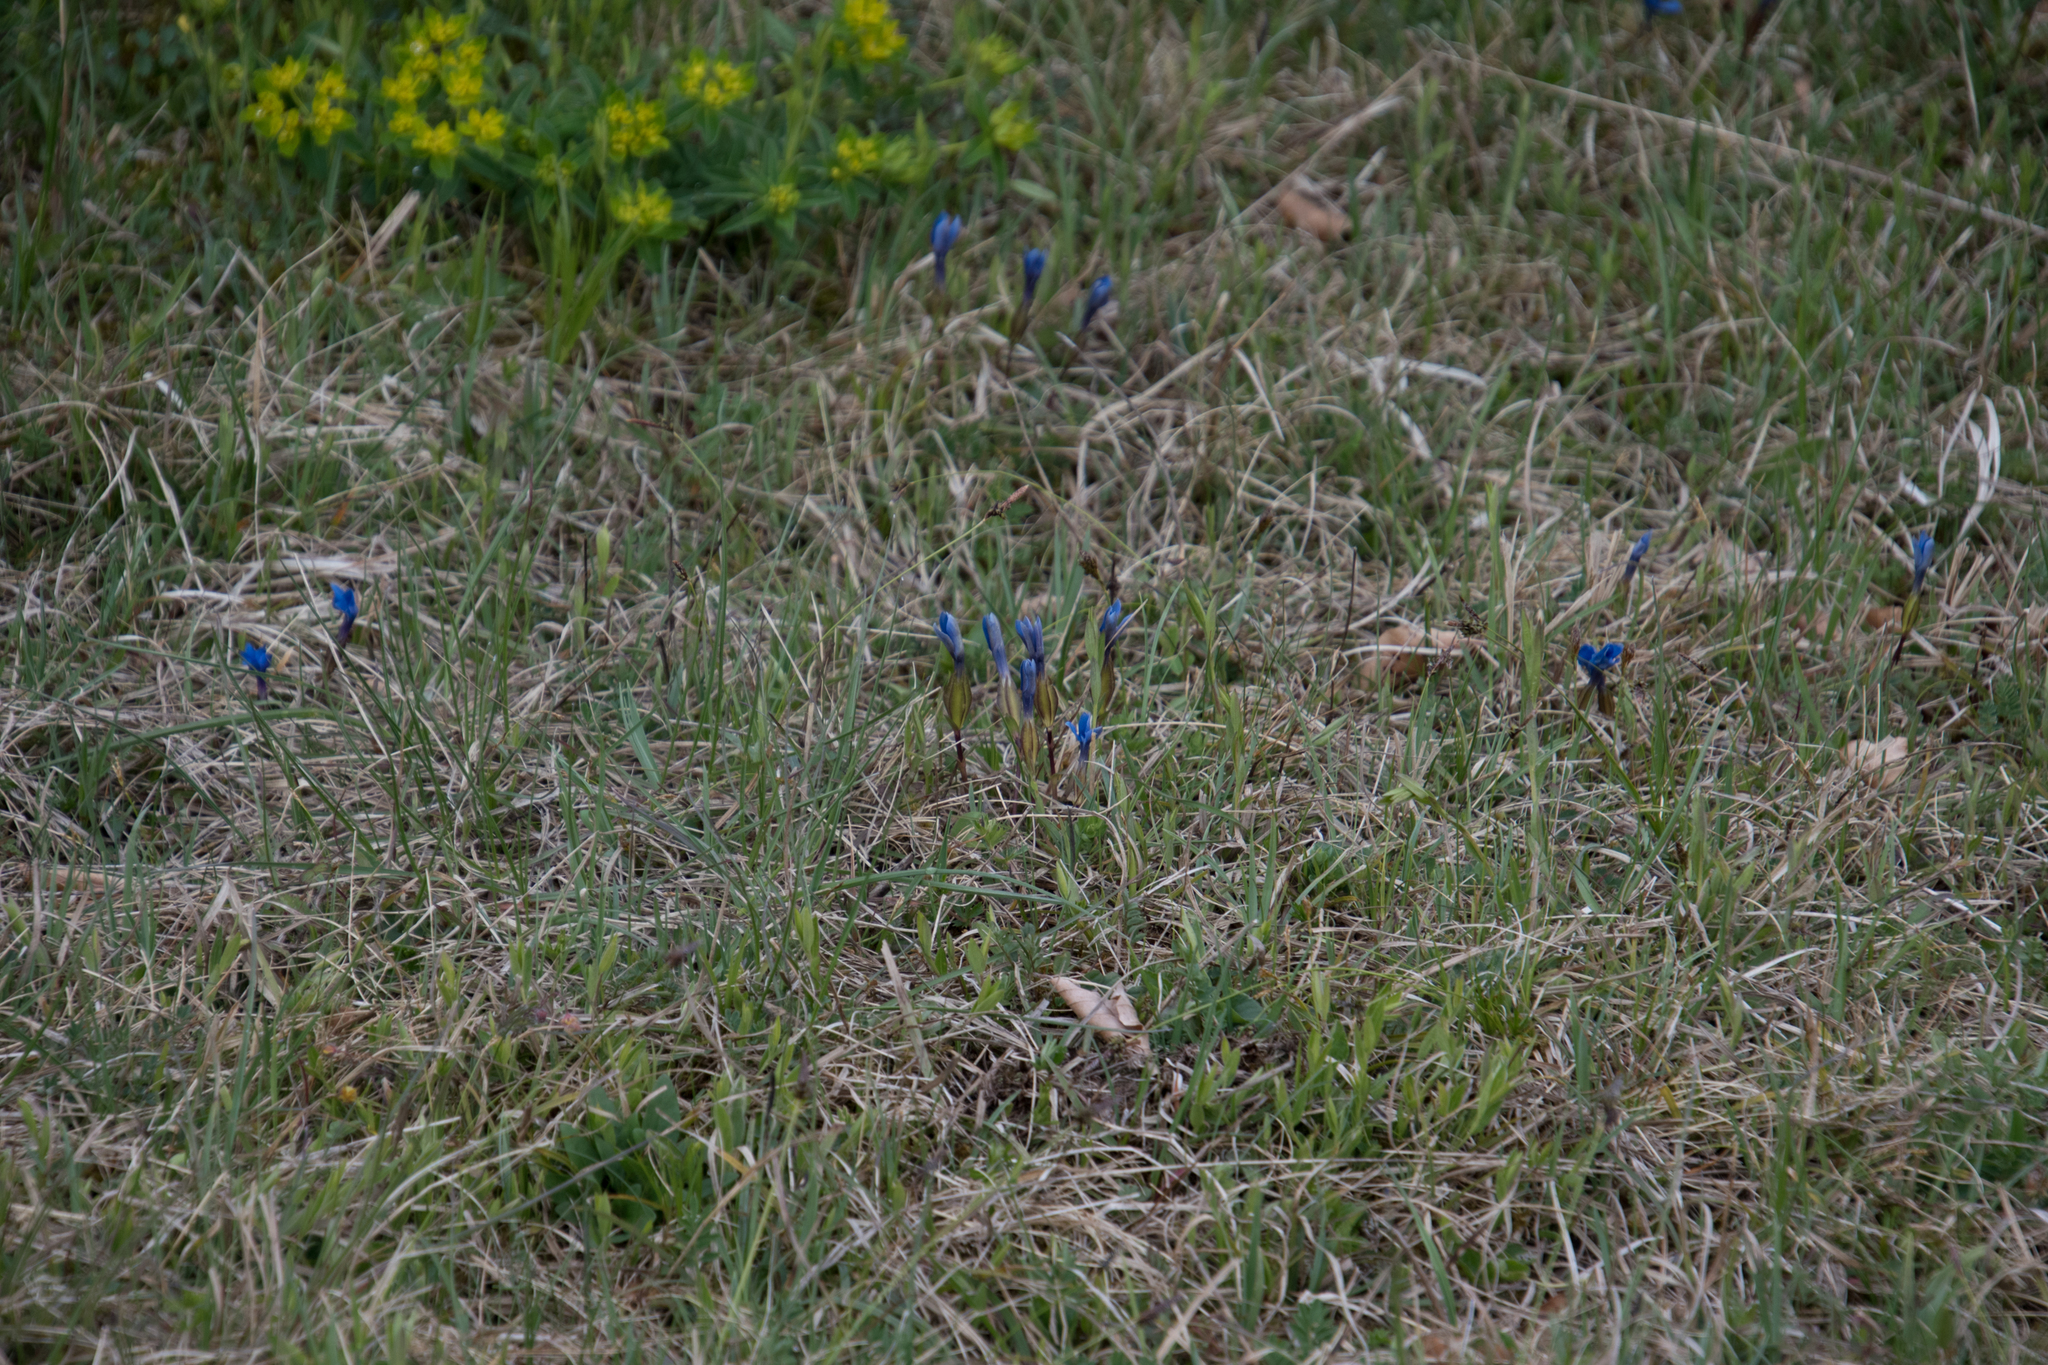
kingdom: Plantae
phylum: Tracheophyta
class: Magnoliopsida
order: Gentianales
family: Gentianaceae
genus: Gentiana
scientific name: Gentiana verna
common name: Spring gentian
